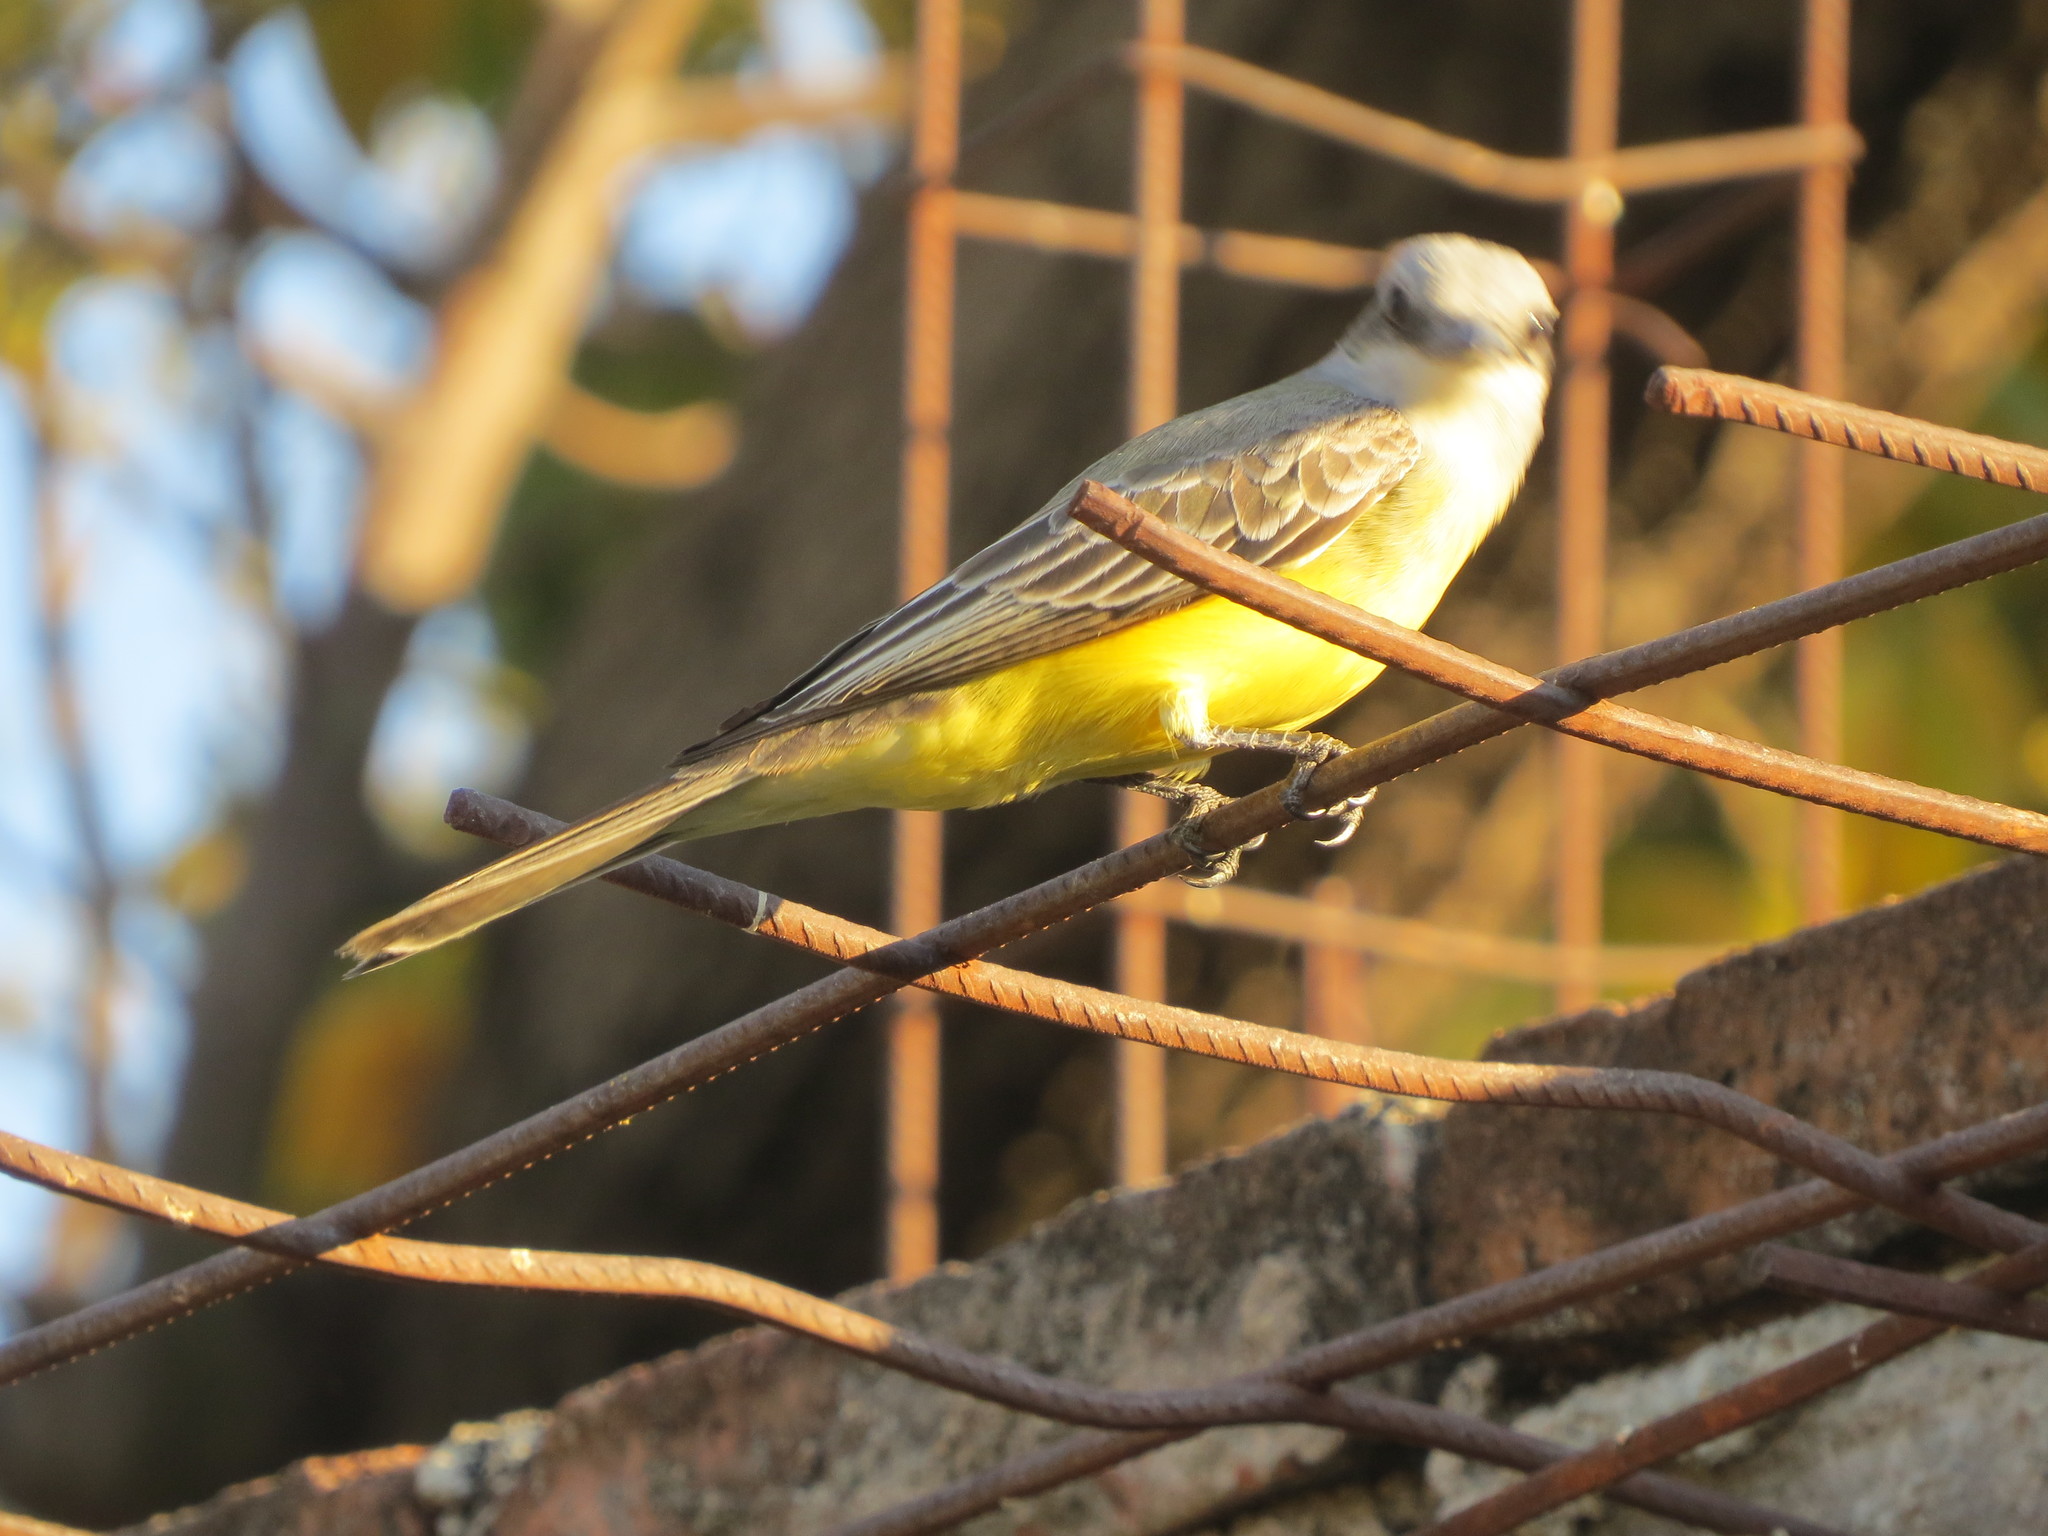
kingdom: Animalia
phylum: Chordata
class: Aves
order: Passeriformes
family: Tyrannidae
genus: Tyrannus
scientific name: Tyrannus melancholicus
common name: Tropical kingbird
